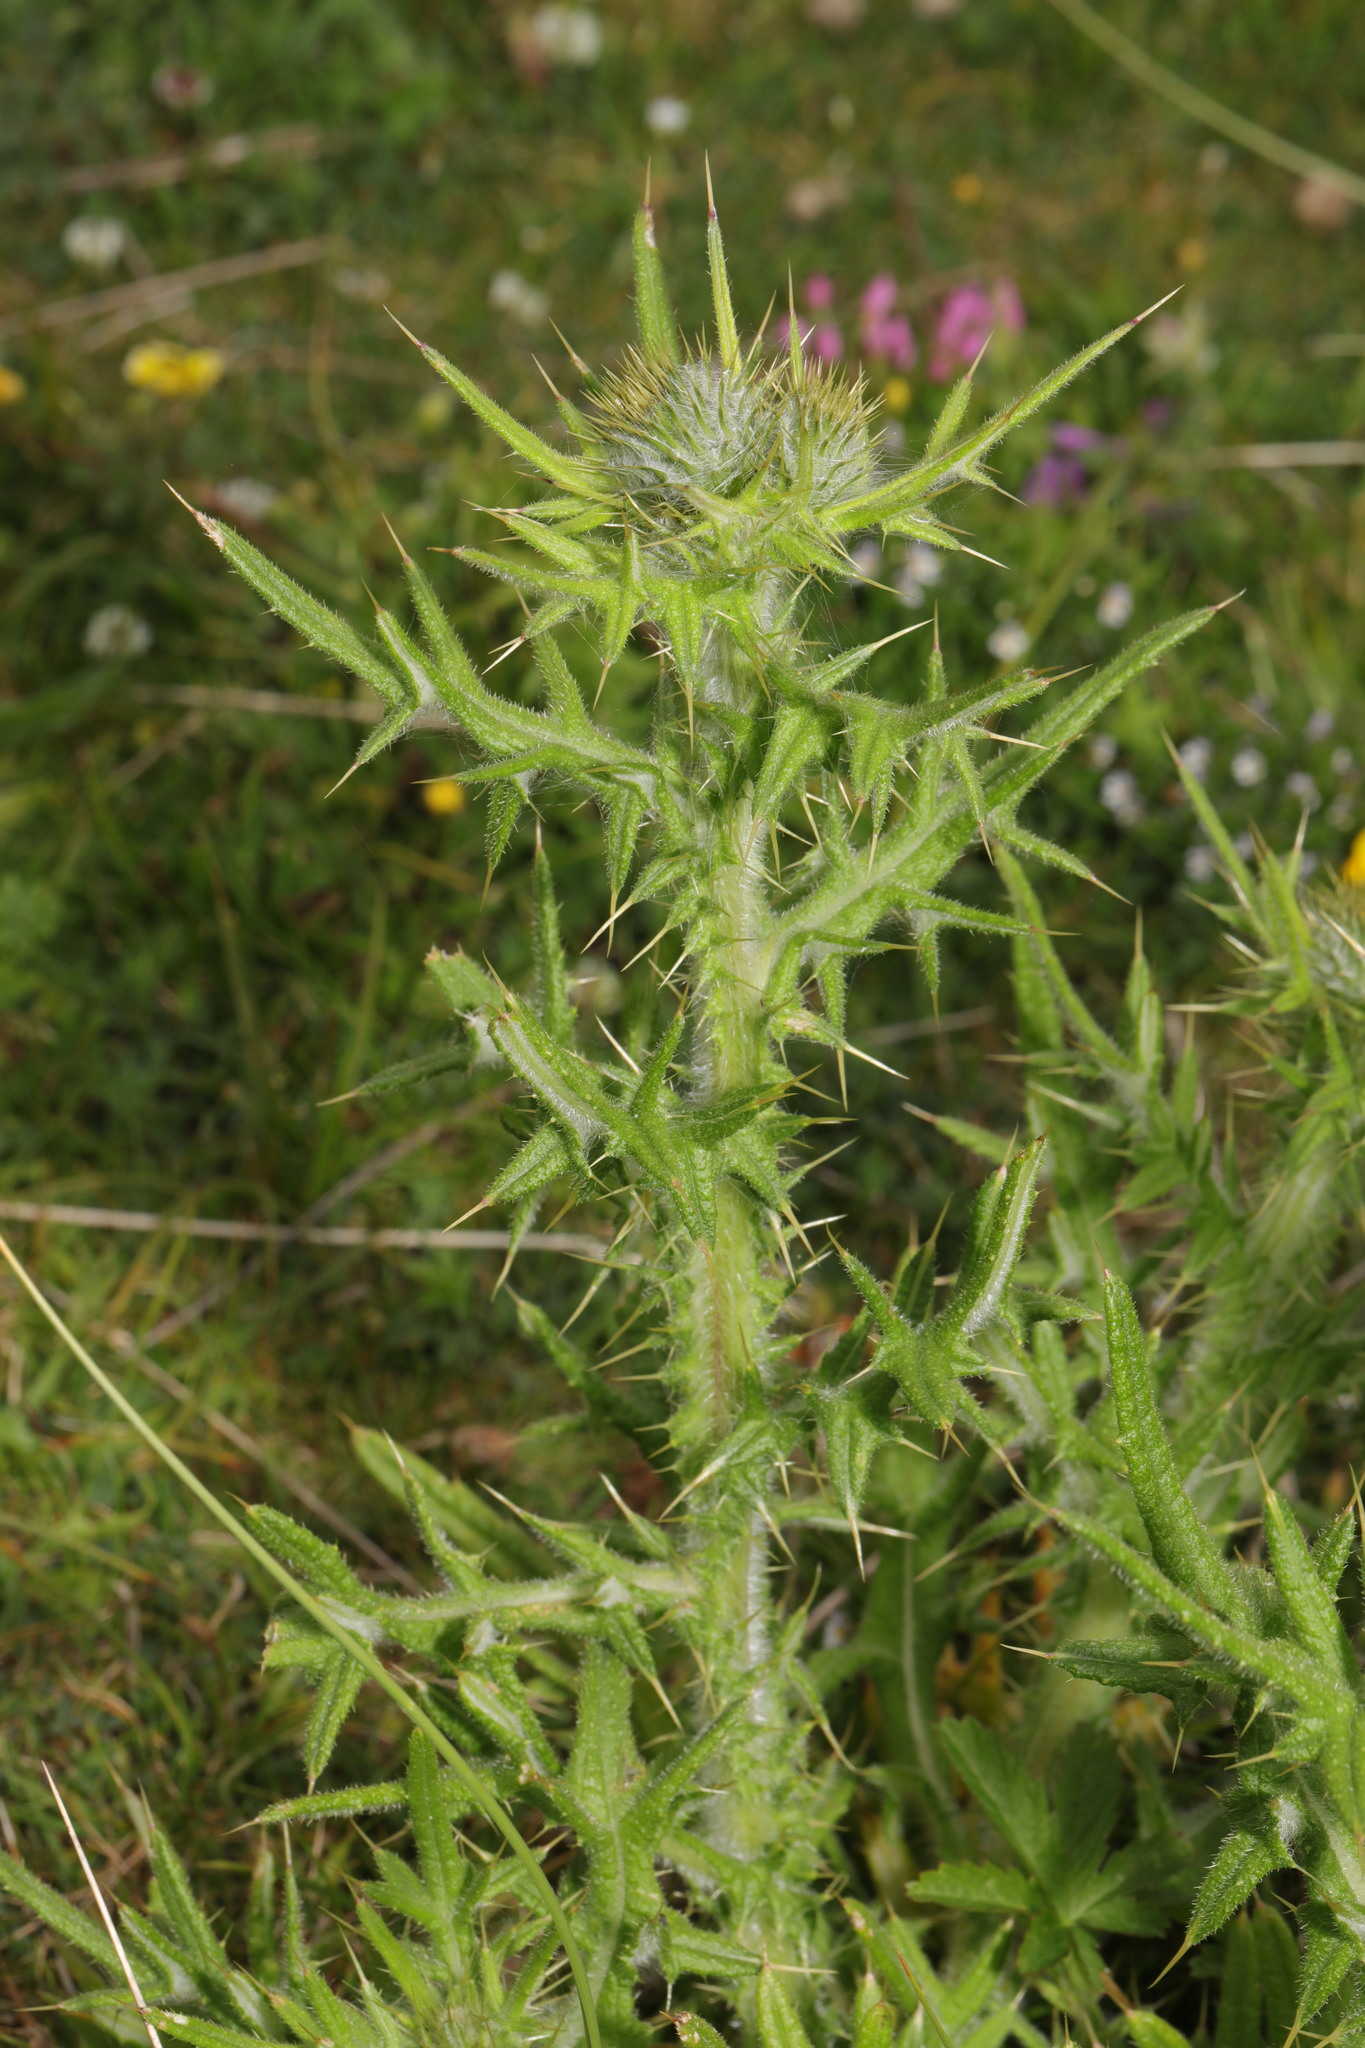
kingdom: Plantae
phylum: Tracheophyta
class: Magnoliopsida
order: Asterales
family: Asteraceae
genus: Cirsium
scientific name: Cirsium vulgare
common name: Bull thistle
